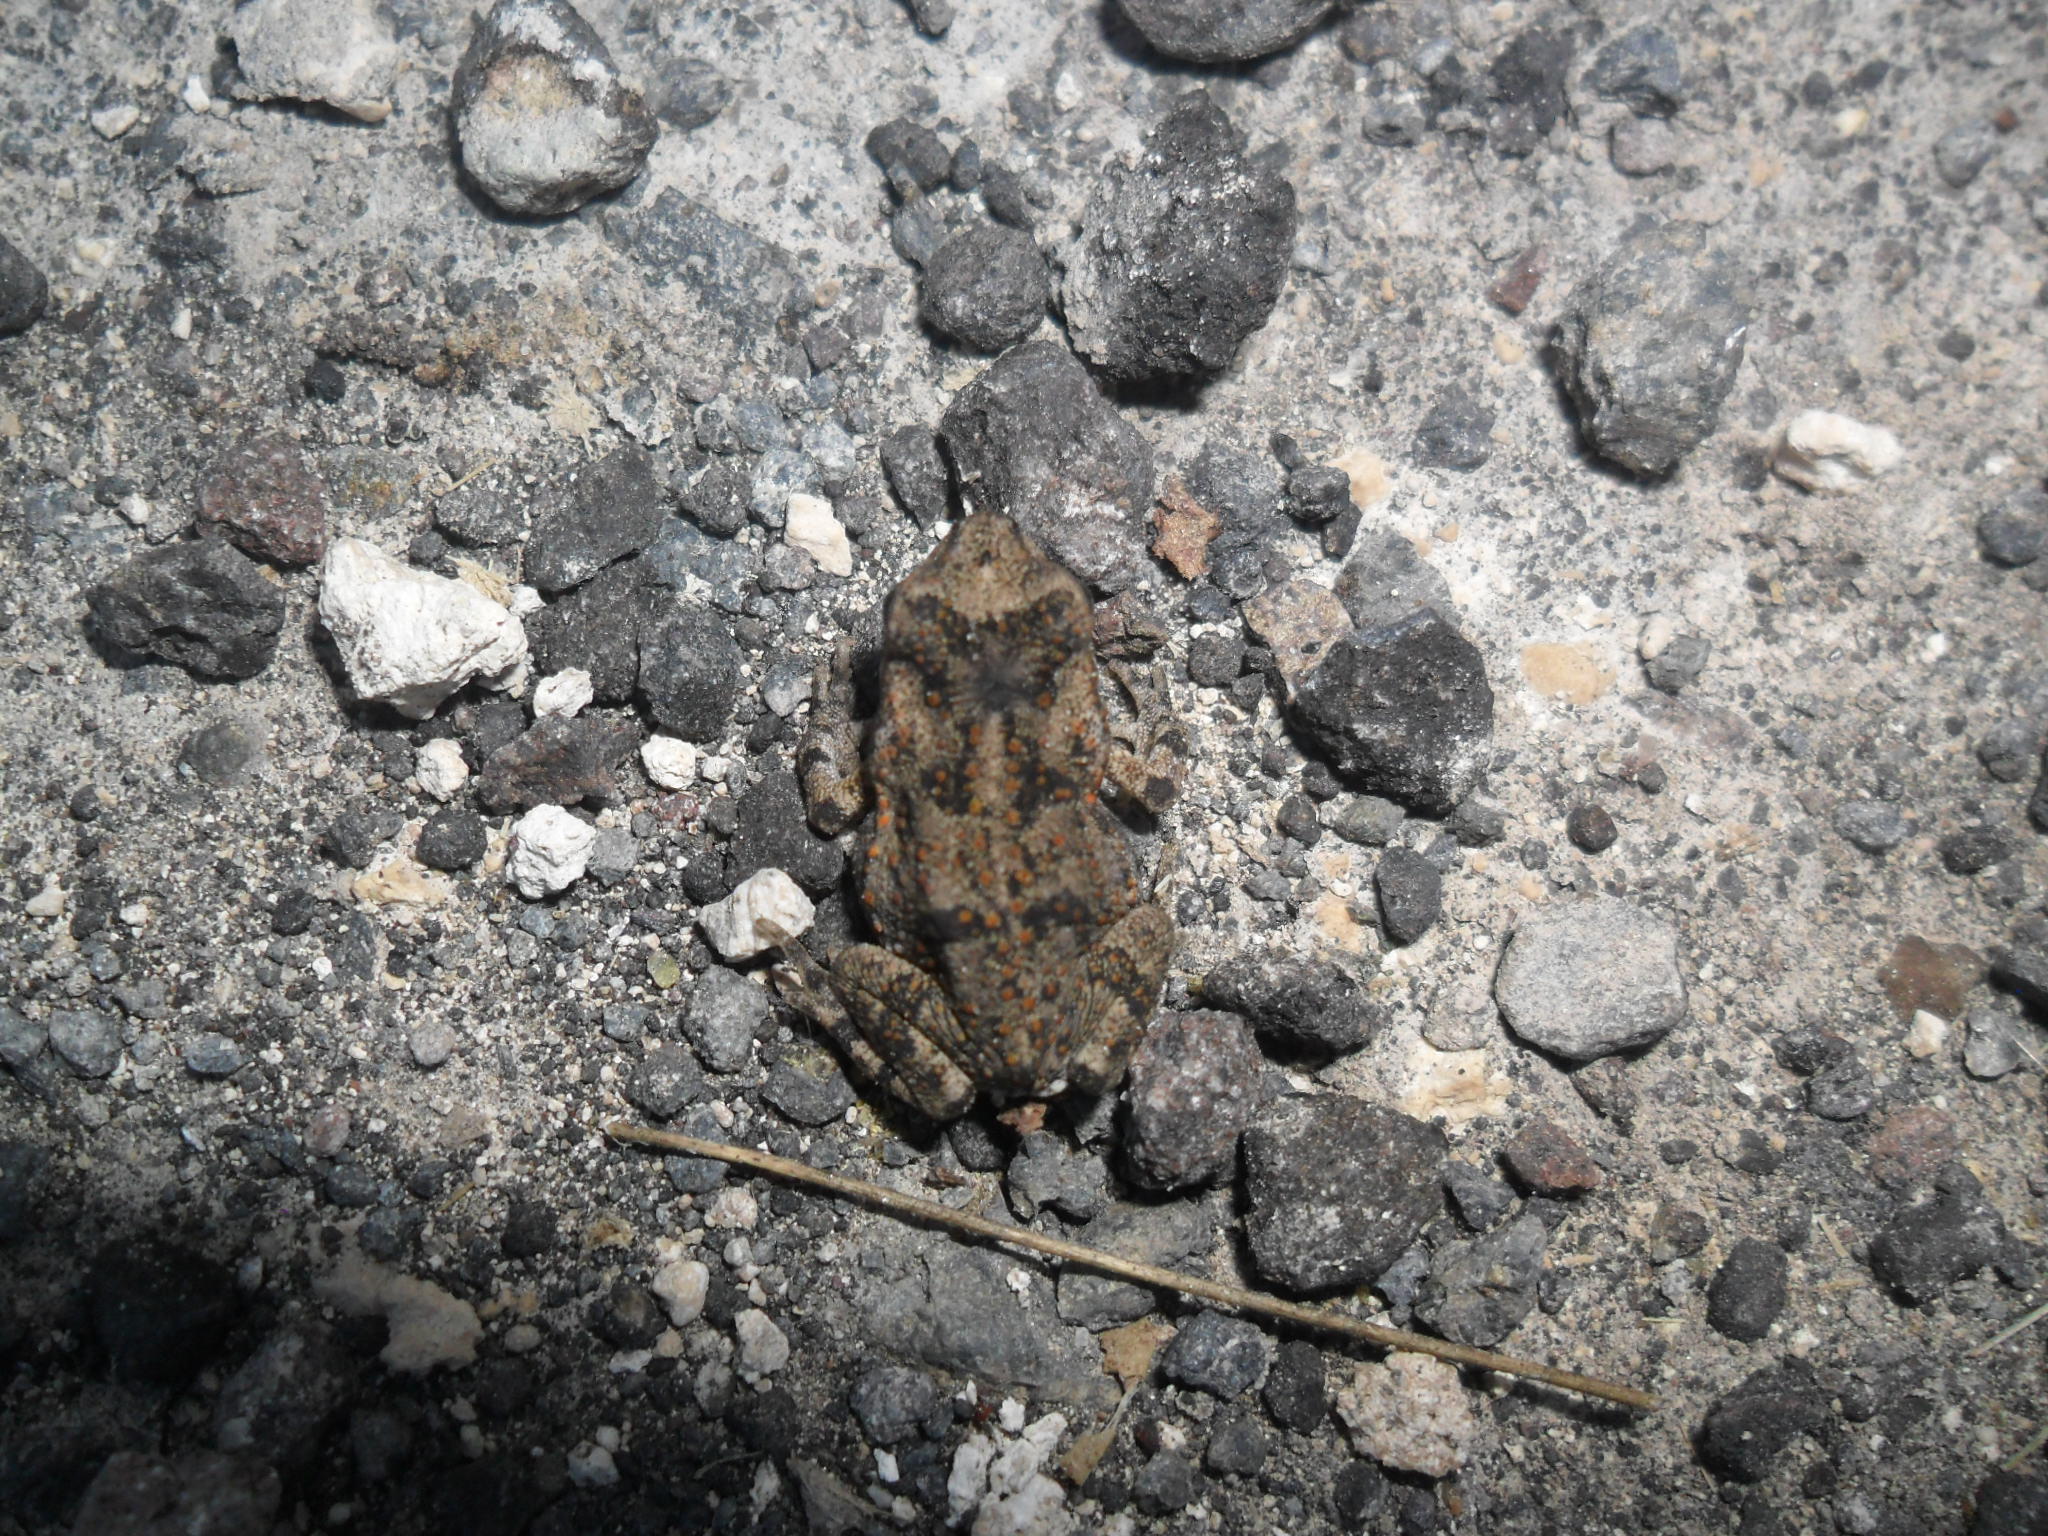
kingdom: Animalia
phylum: Chordata
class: Amphibia
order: Anura
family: Bufonidae
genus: Incilius
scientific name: Incilius valliceps
